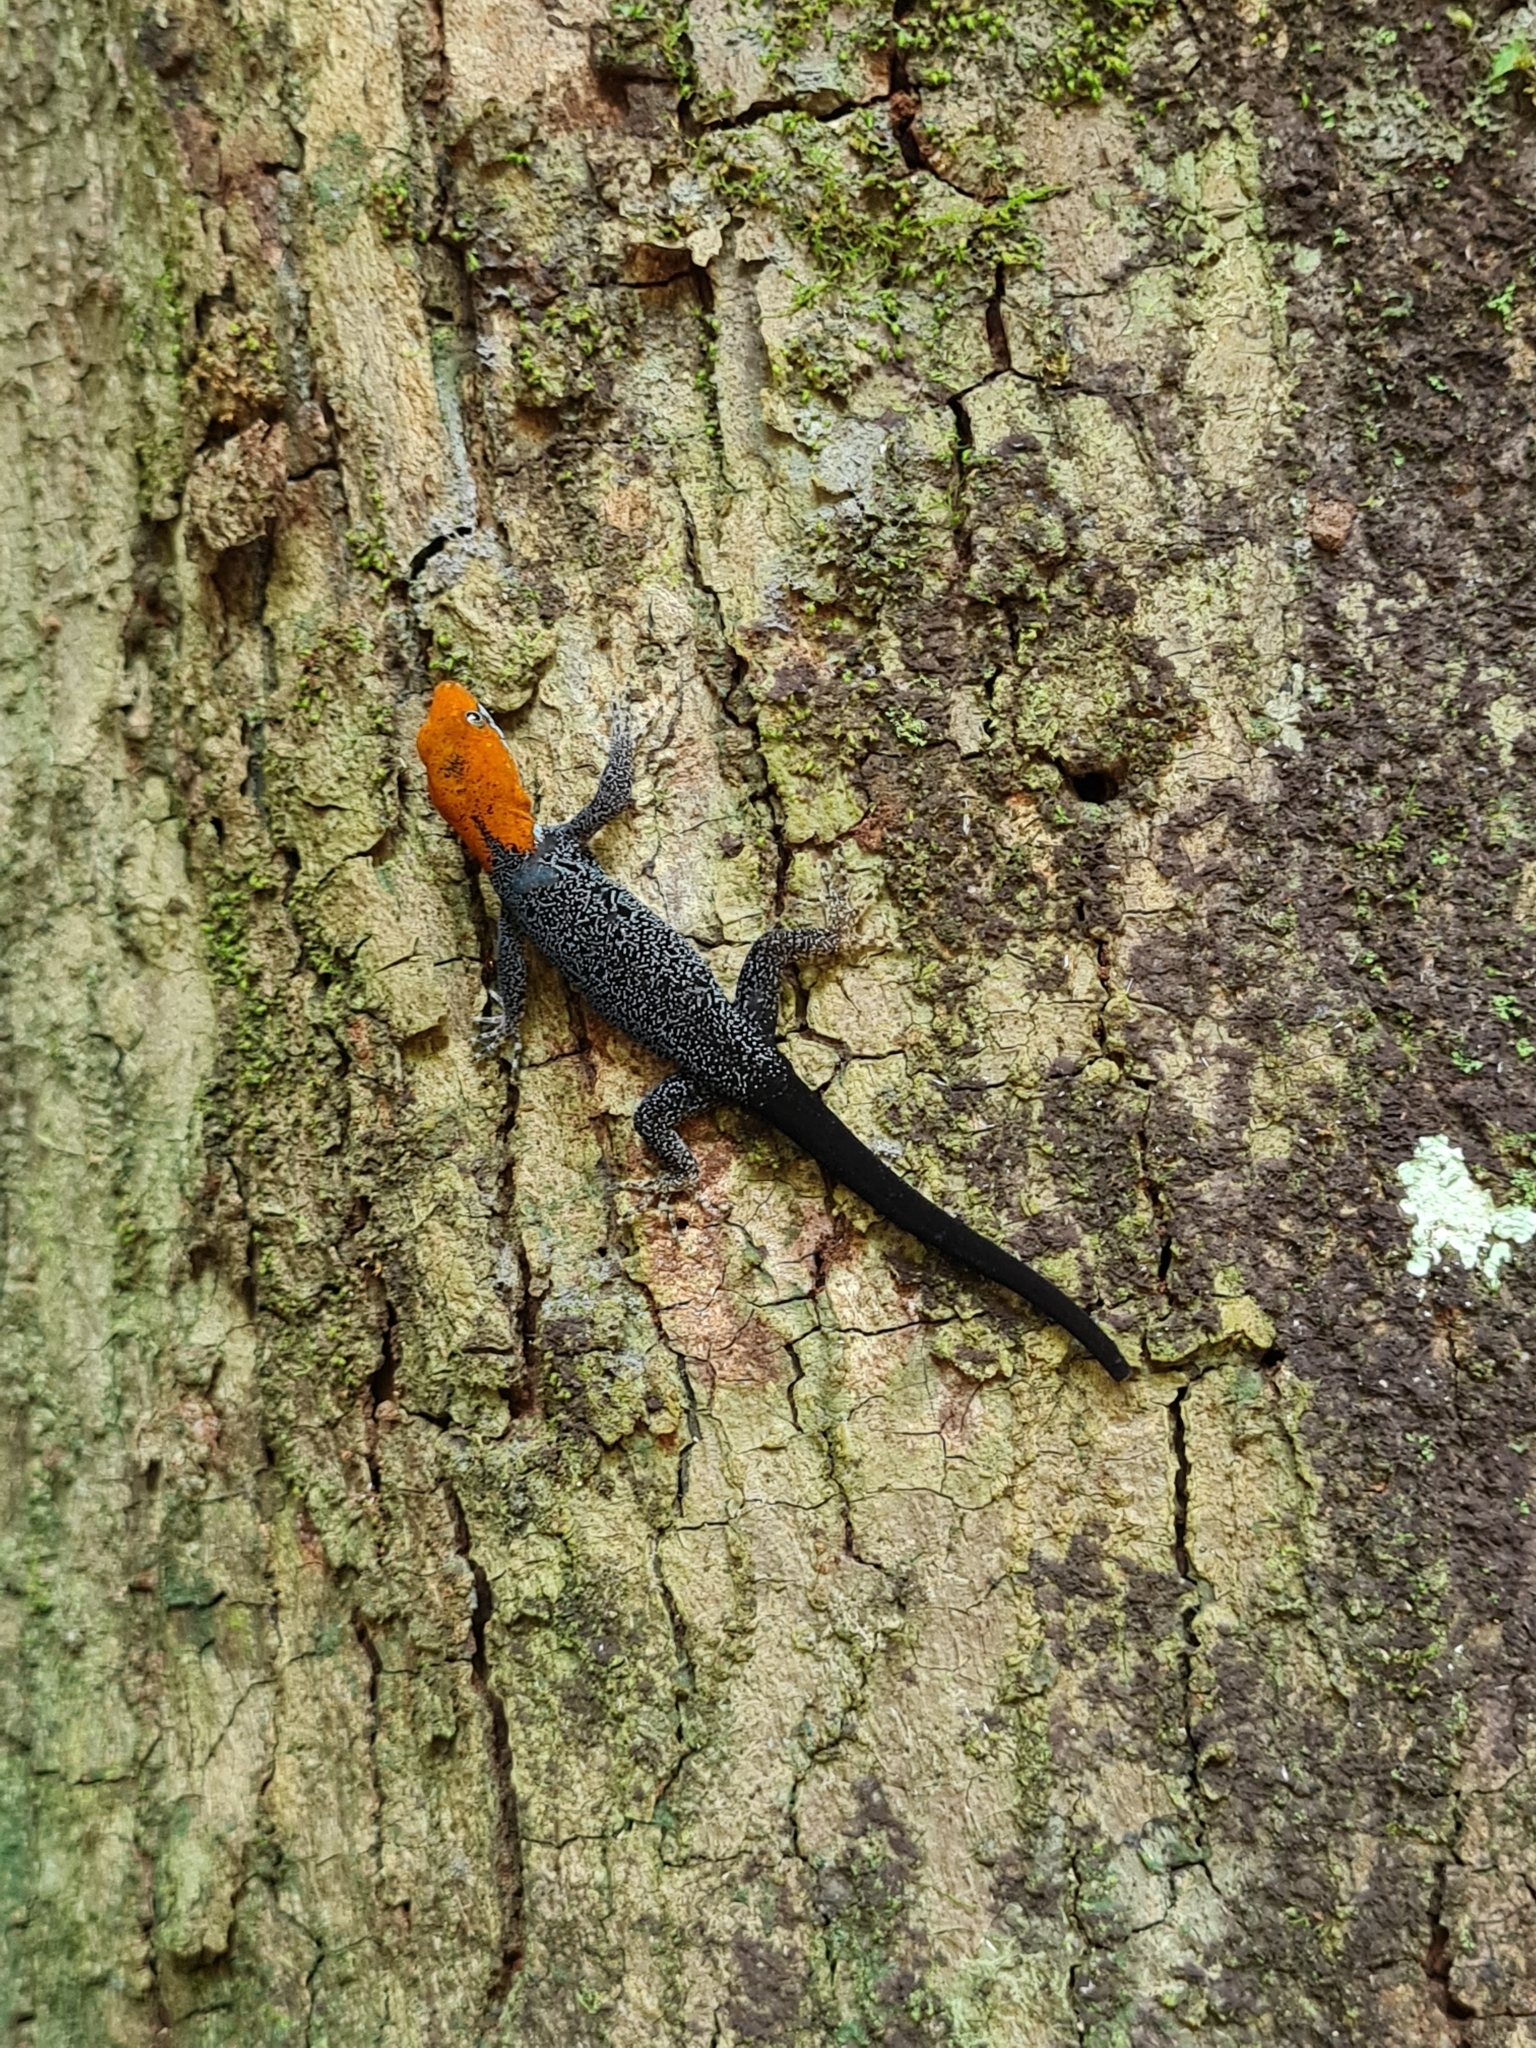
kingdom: Animalia
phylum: Chordata
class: Squamata
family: Sphaerodactylidae
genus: Gonatodes
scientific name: Gonatodes albogularis
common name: Yellow-headed gecko
